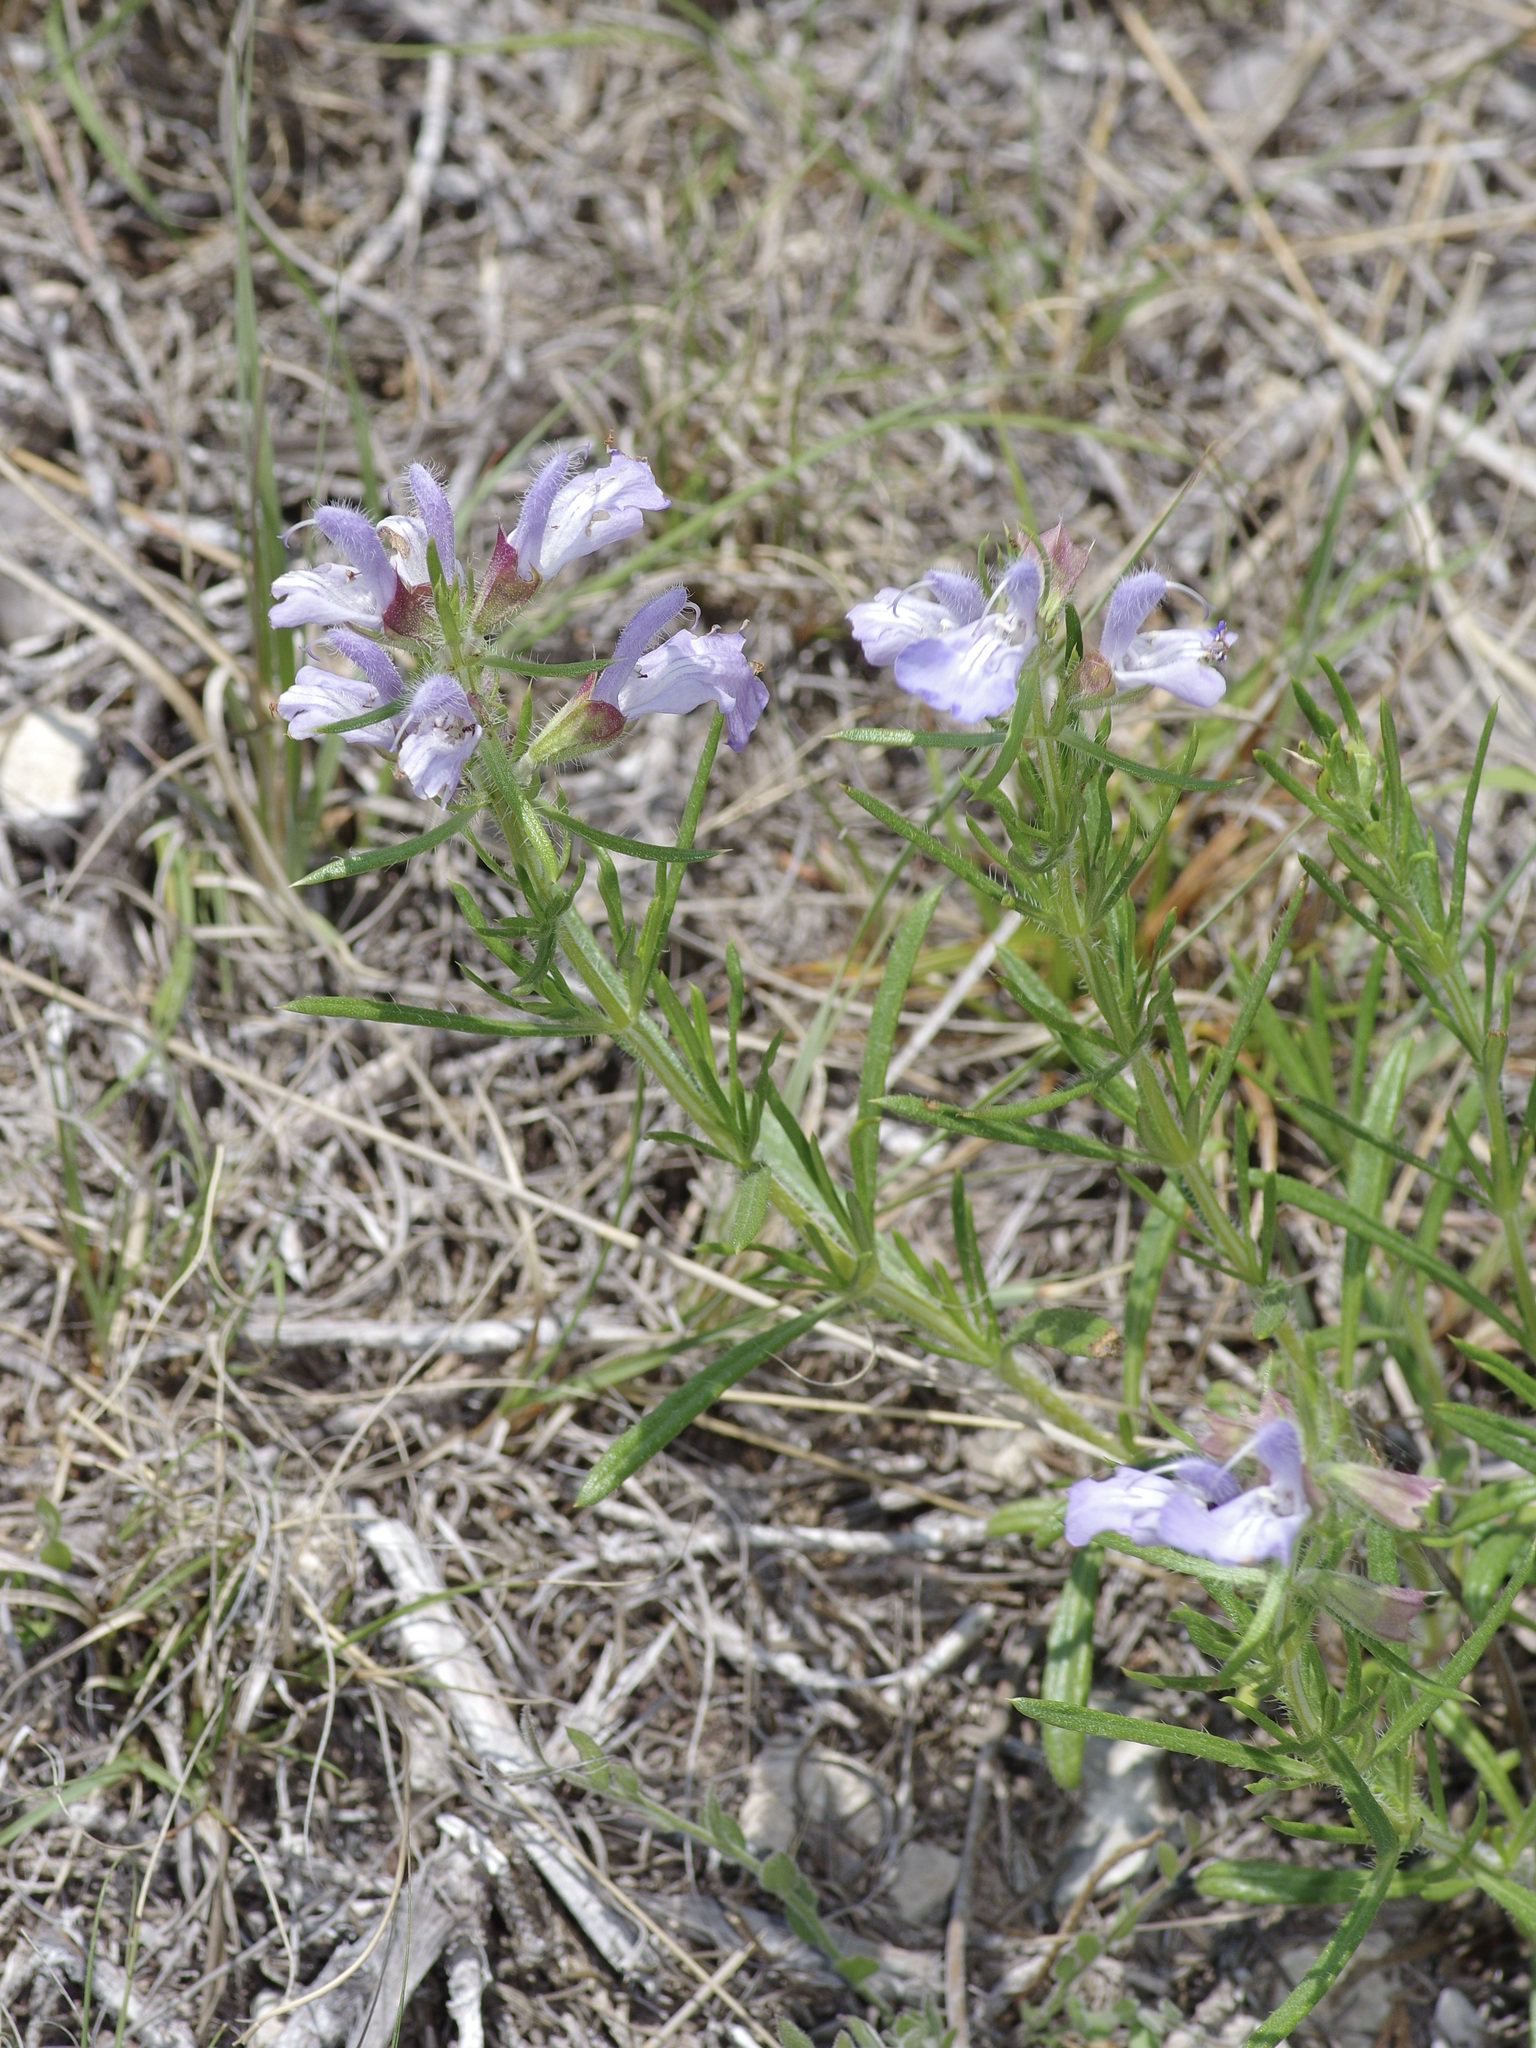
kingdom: Plantae
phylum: Tracheophyta
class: Magnoliopsida
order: Lamiales
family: Lamiaceae
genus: Salvia
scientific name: Salvia engelmannii
